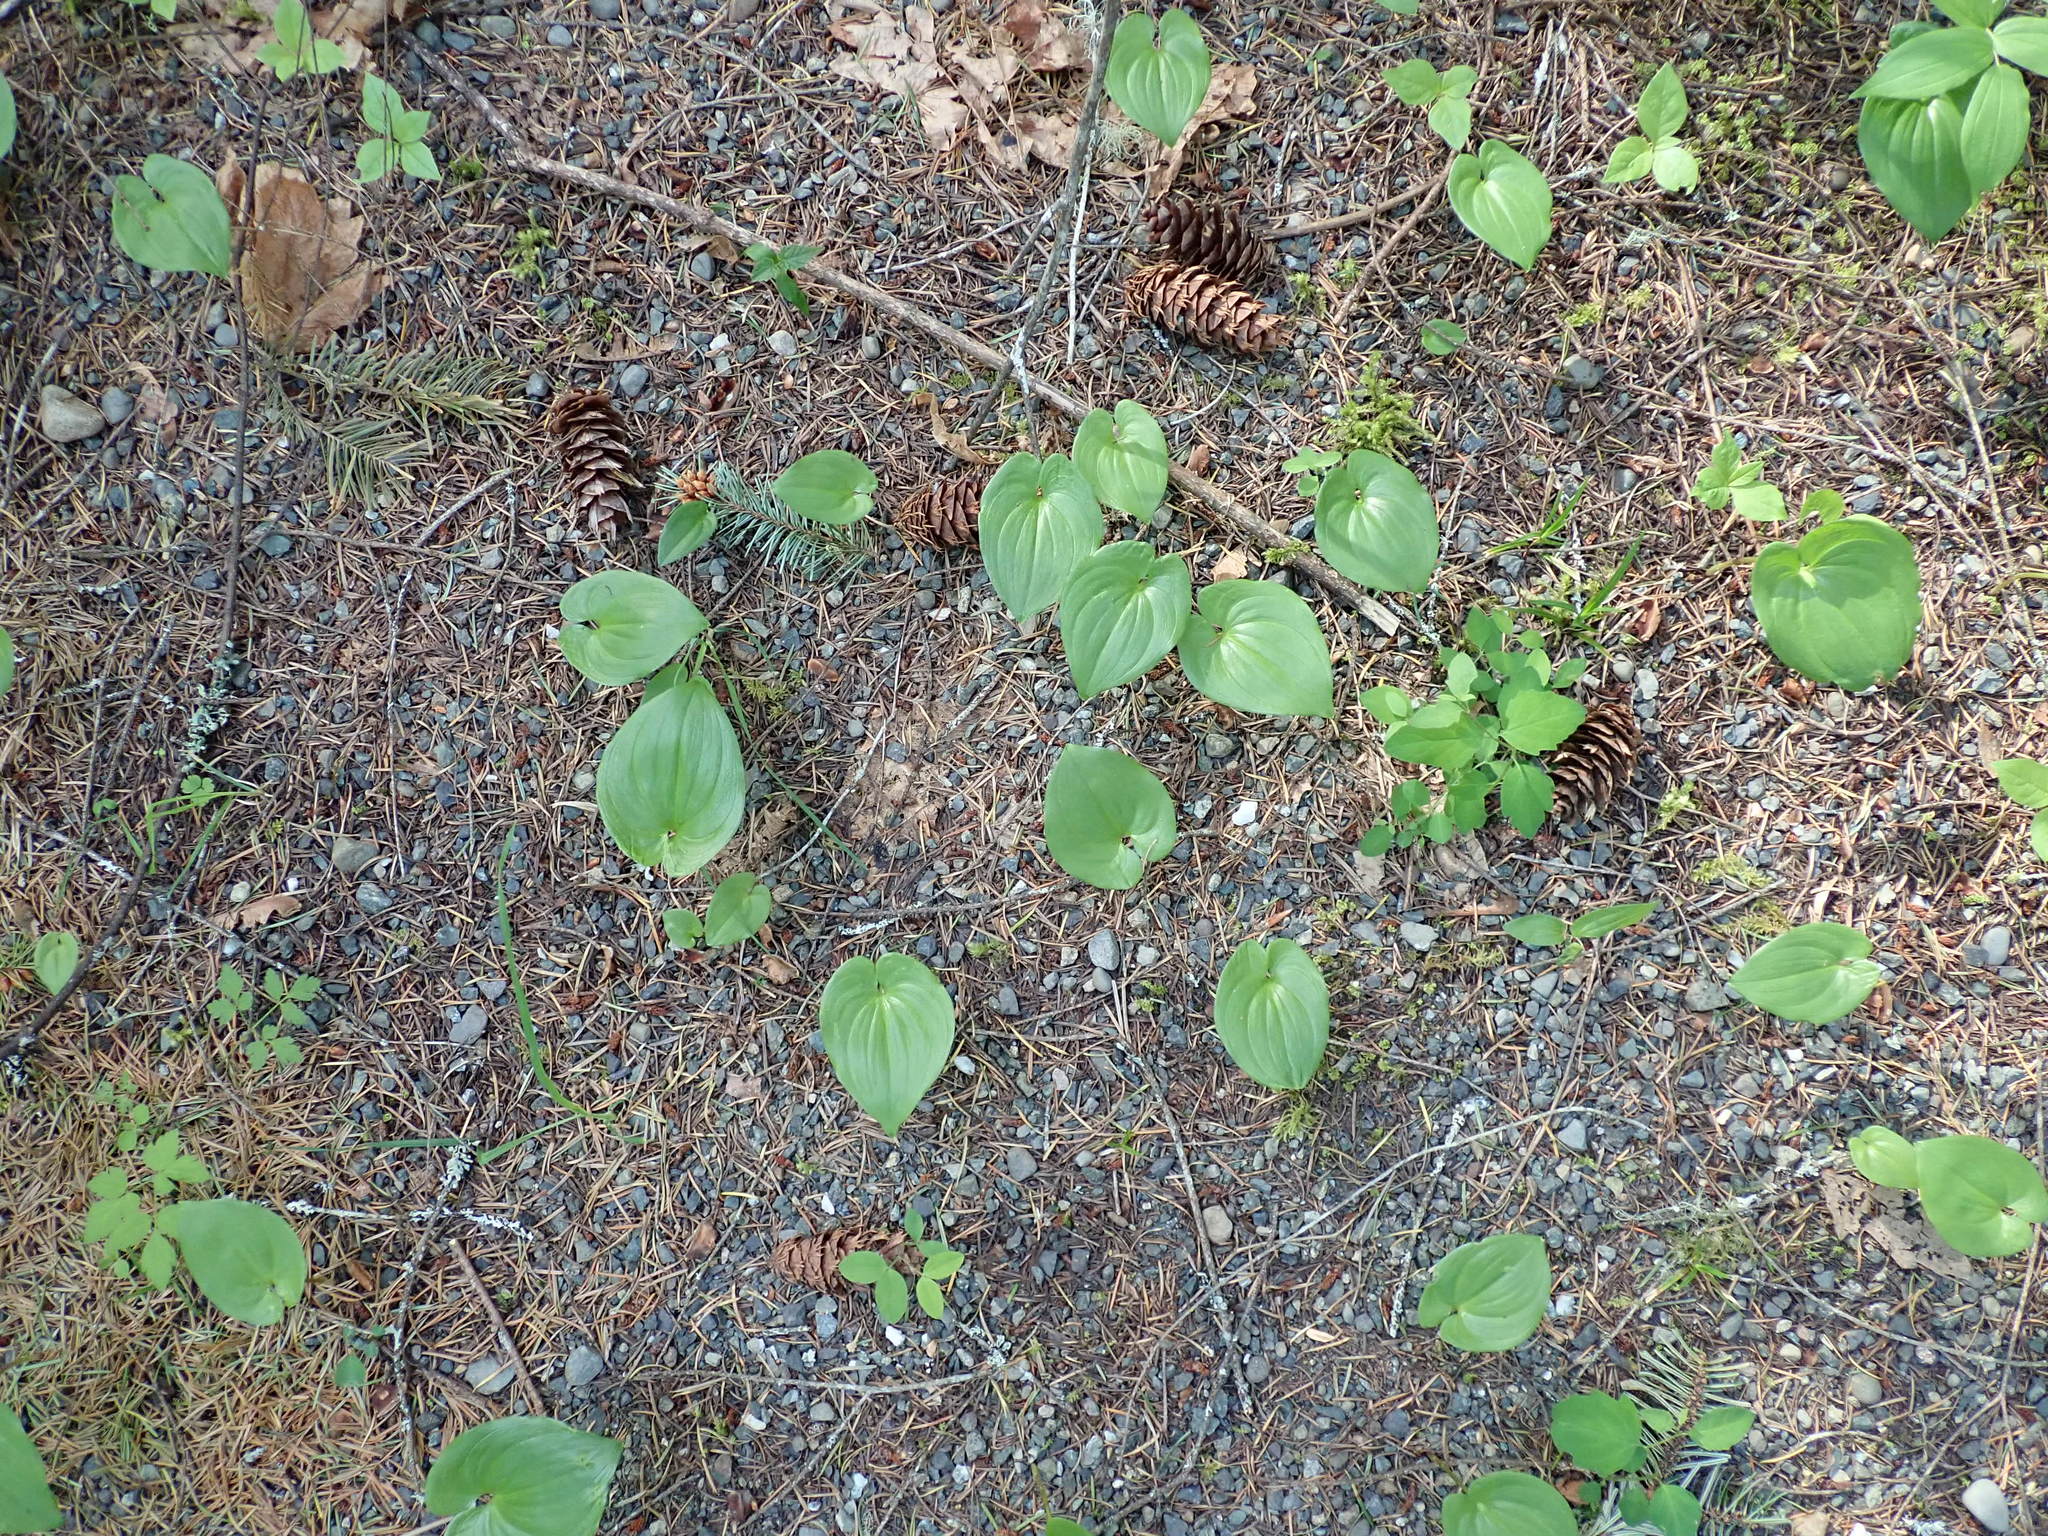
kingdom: Plantae
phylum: Tracheophyta
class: Liliopsida
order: Asparagales
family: Asparagaceae
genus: Maianthemum
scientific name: Maianthemum dilatatum
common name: False lily-of-the-valley
